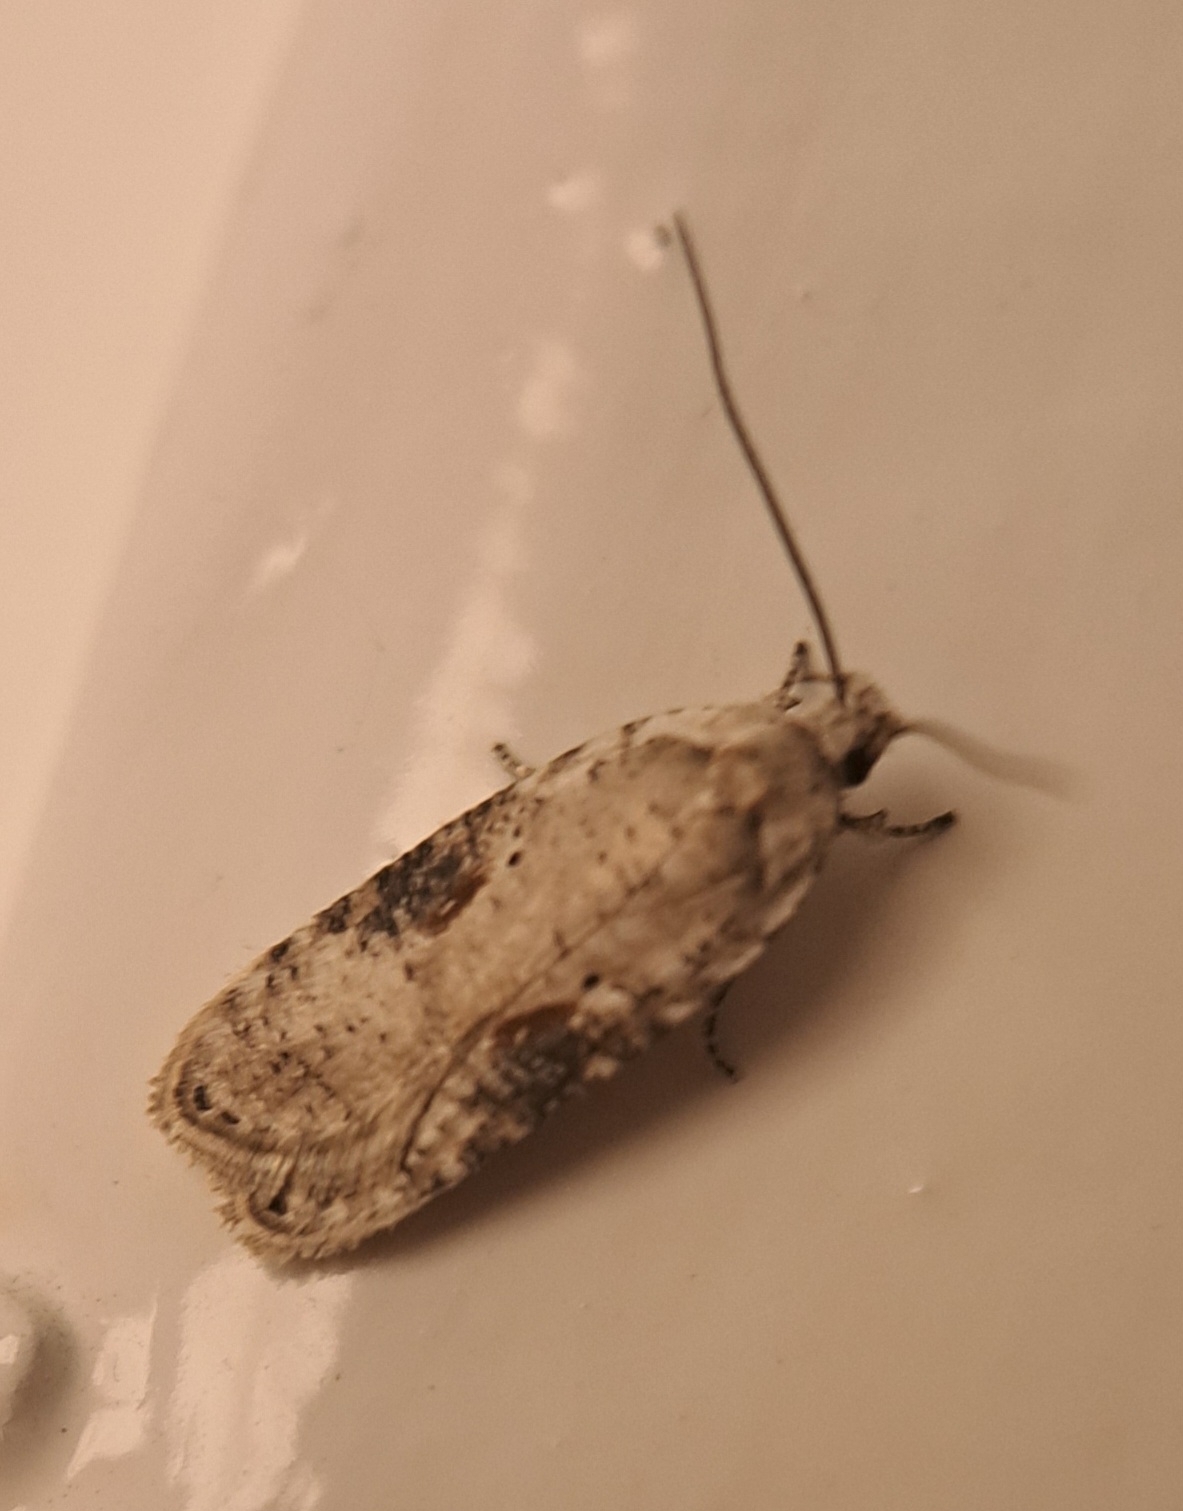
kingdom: Animalia
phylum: Arthropoda
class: Insecta
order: Lepidoptera
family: Depressariidae
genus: Agonopterix
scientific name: Agonopterix alstroemeriana
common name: Moth
